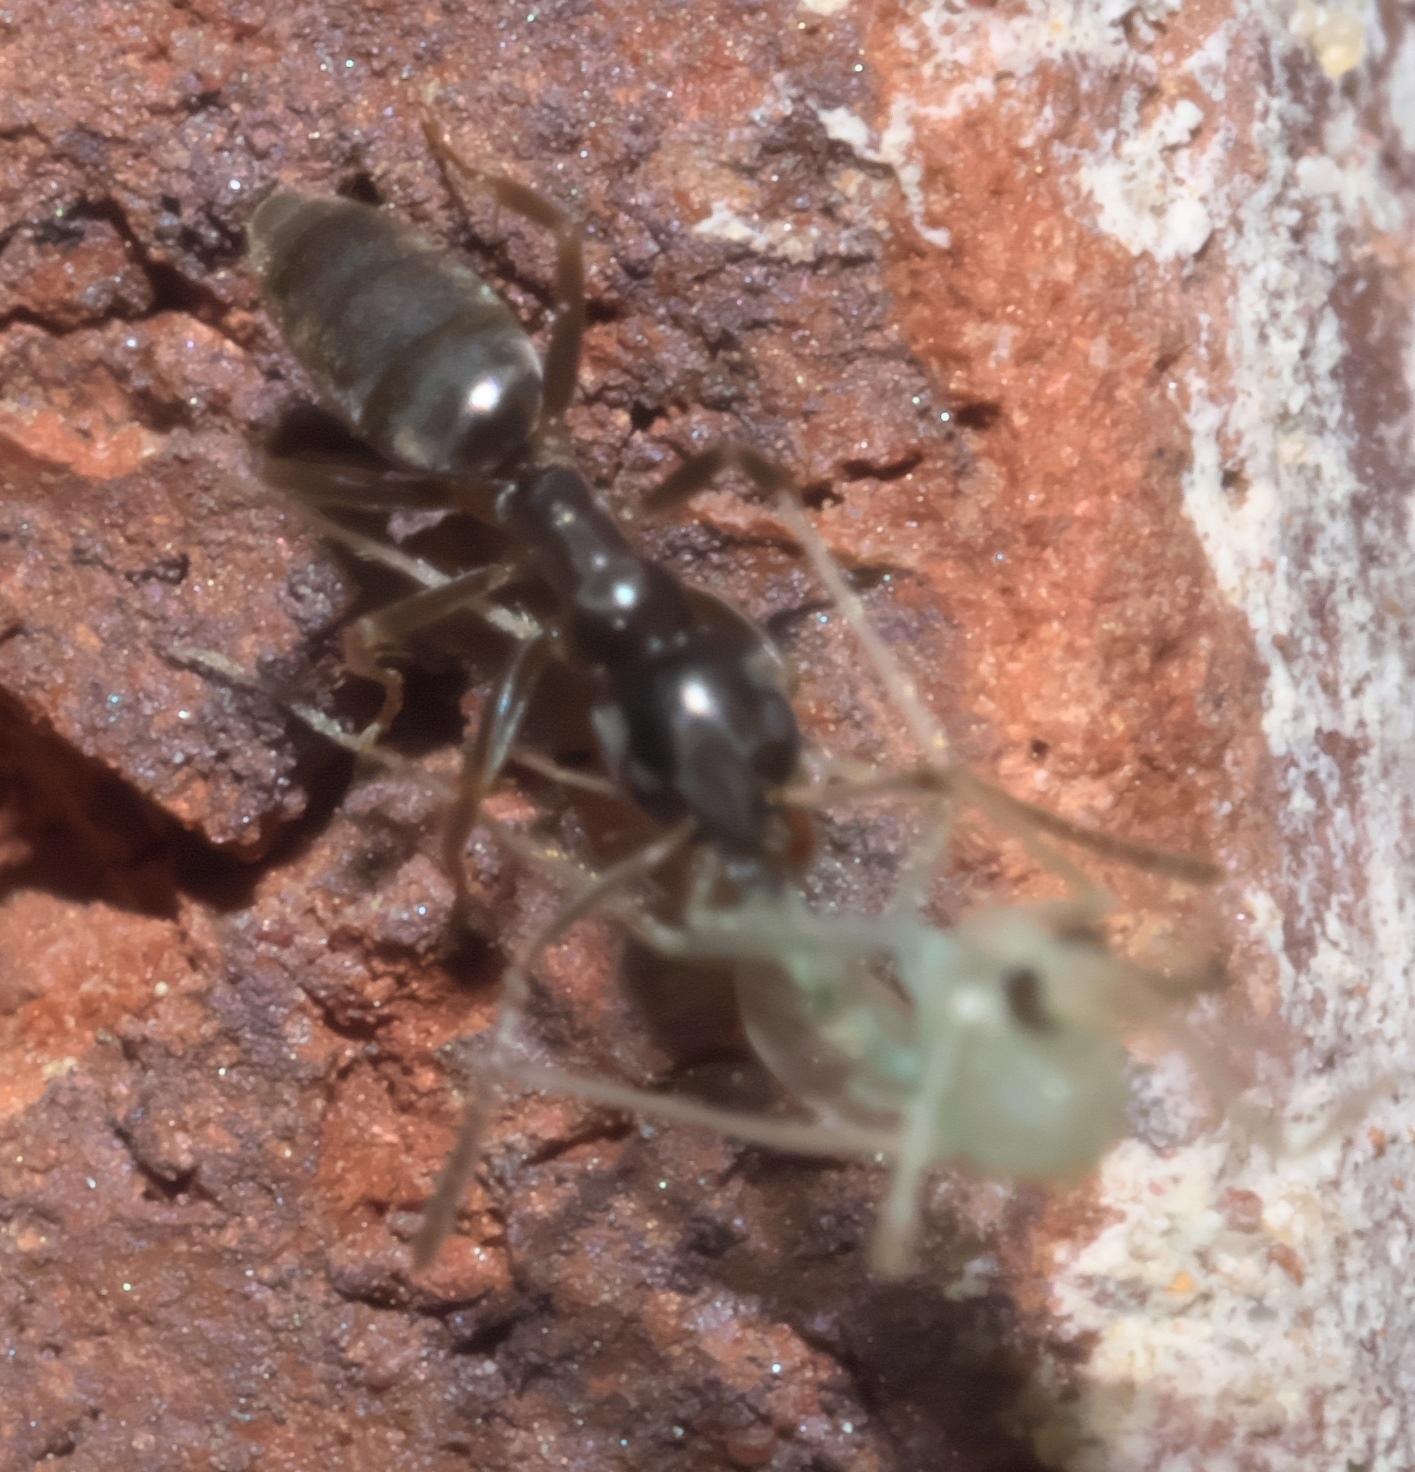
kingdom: Animalia
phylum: Arthropoda
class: Insecta
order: Hymenoptera
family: Formicidae
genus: Tapinoma
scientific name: Tapinoma sessile
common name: Odorous house ant
